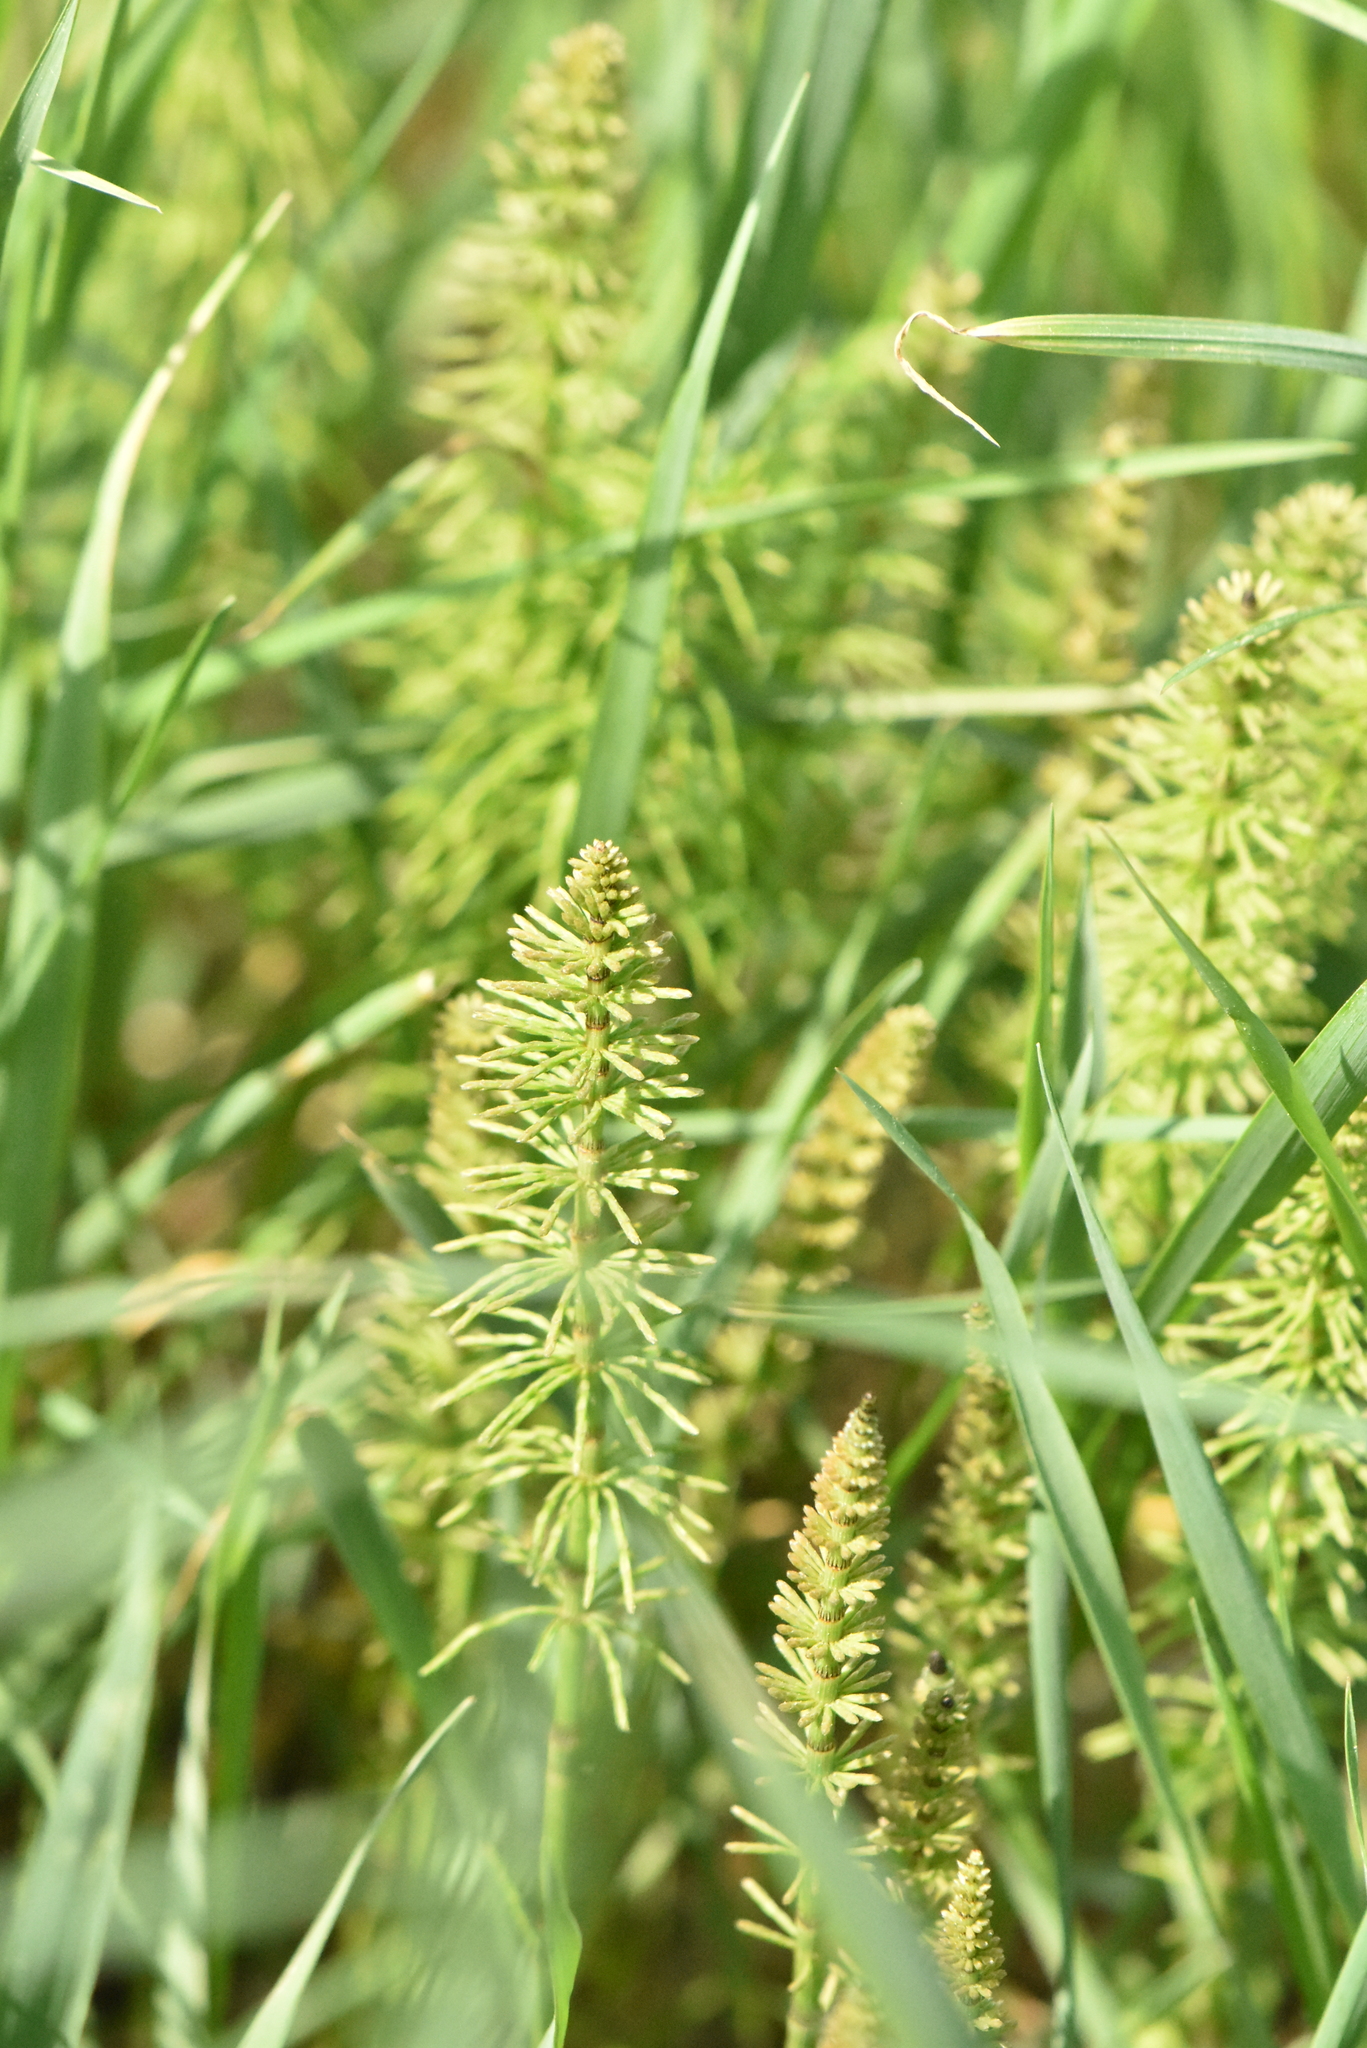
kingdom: Plantae
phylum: Tracheophyta
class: Polypodiopsida
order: Equisetales
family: Equisetaceae
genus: Equisetum
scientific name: Equisetum pratense
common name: Meadow horsetail
